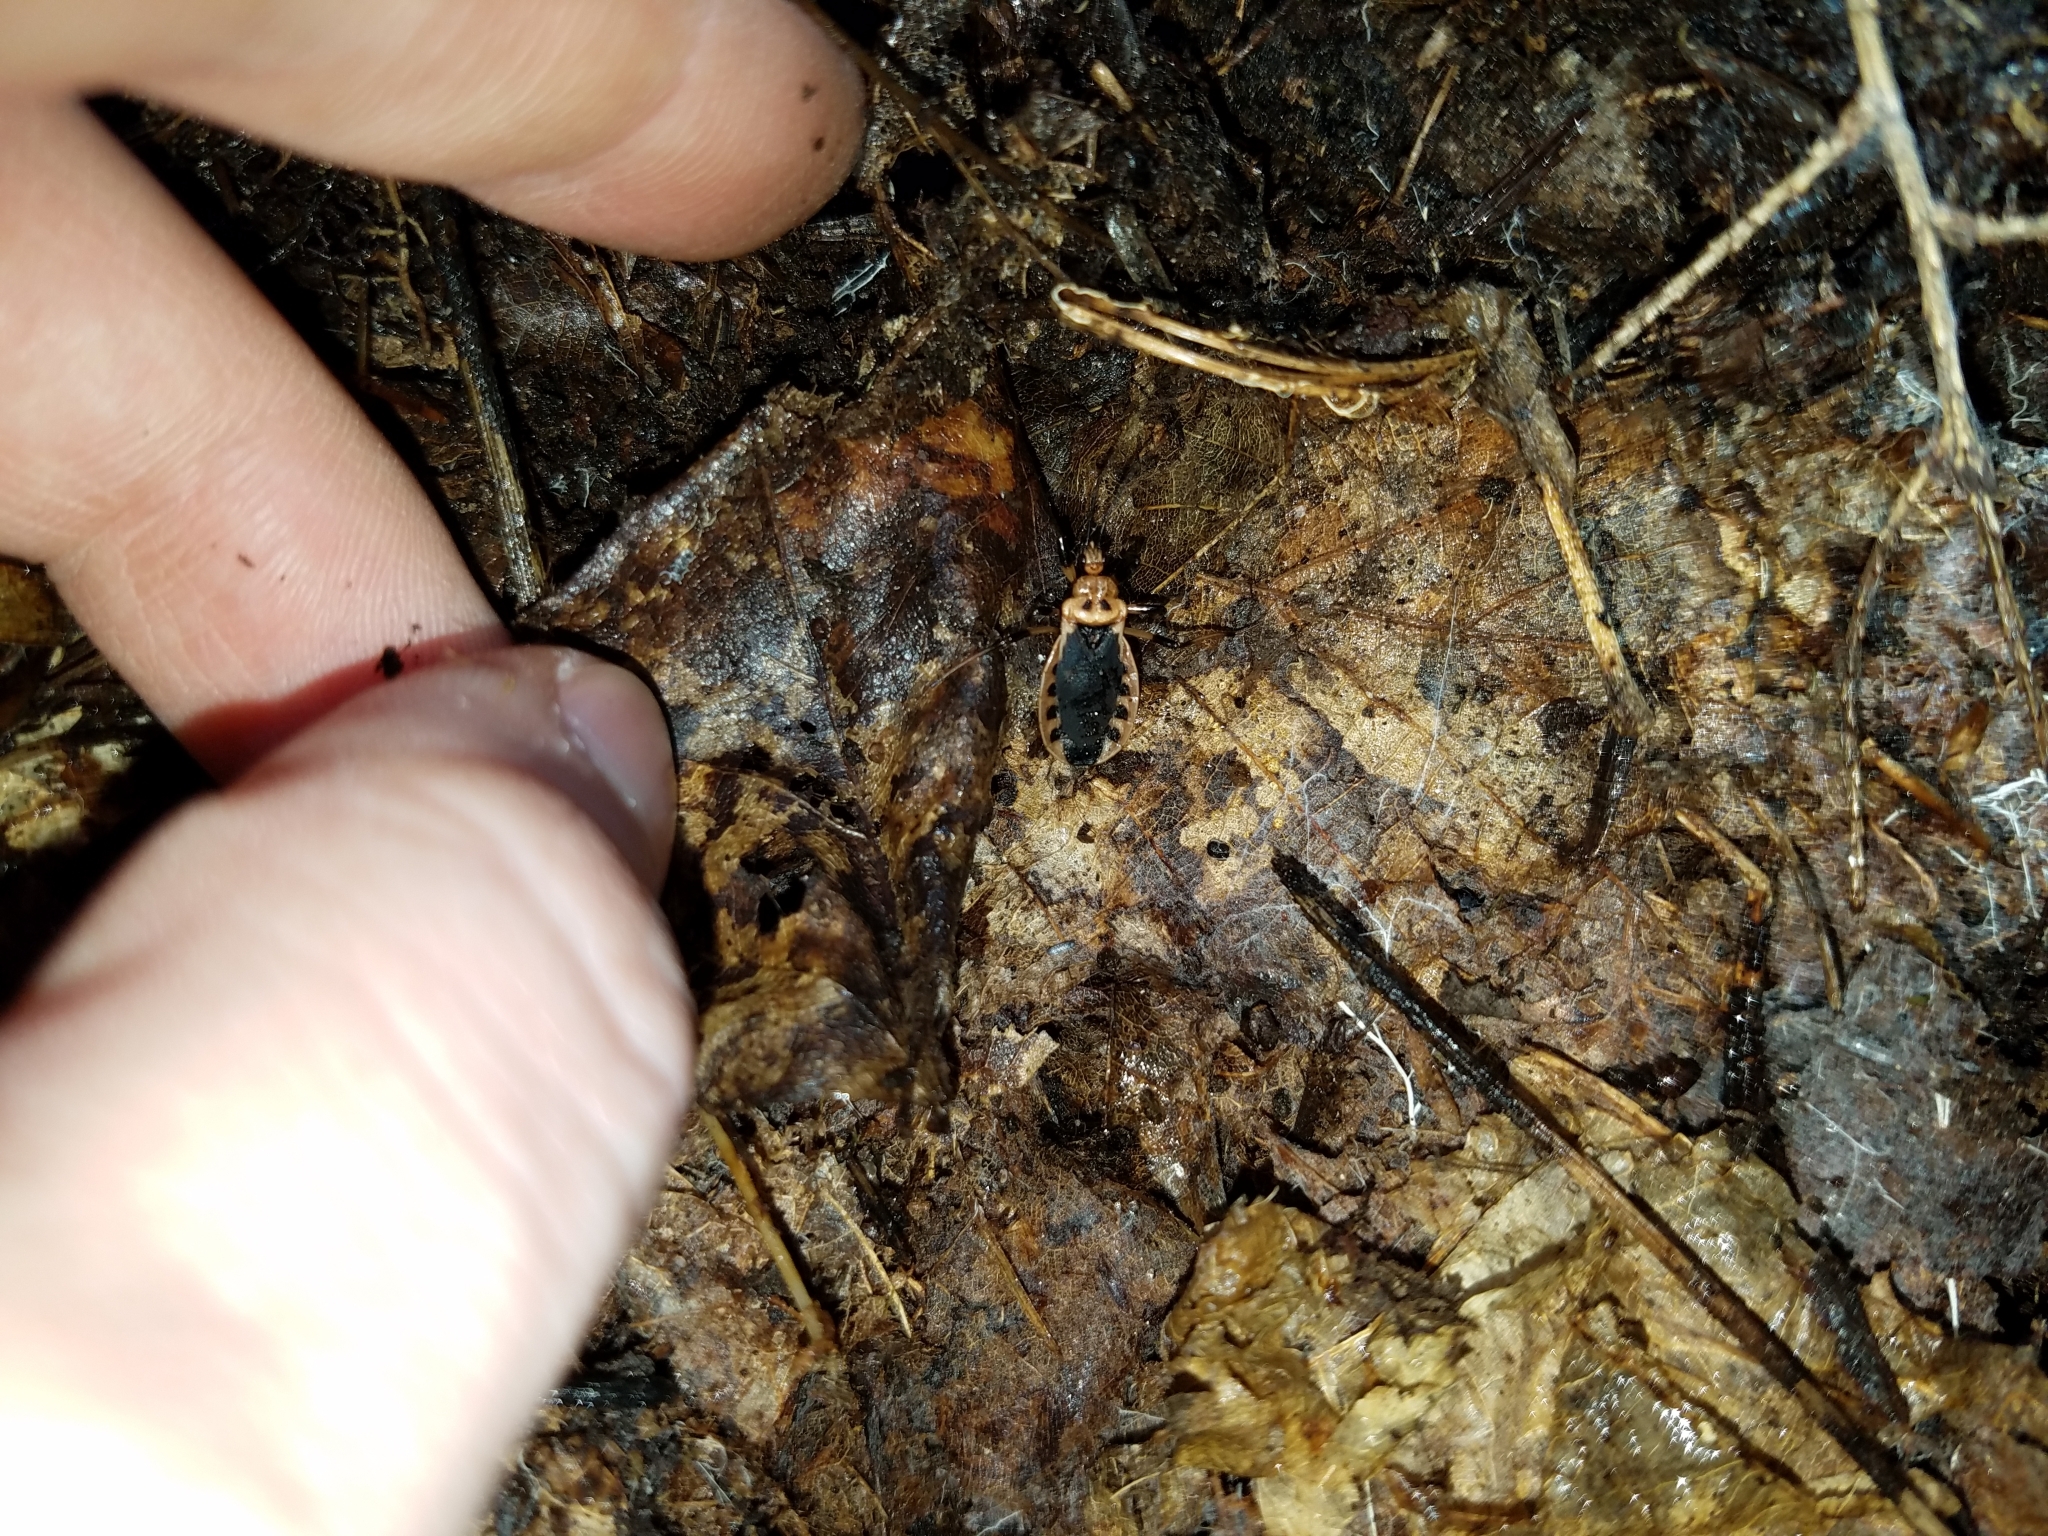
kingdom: Animalia
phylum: Arthropoda
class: Insecta
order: Hemiptera
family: Reduviidae
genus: Rhiginia
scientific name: Rhiginia cruciata
